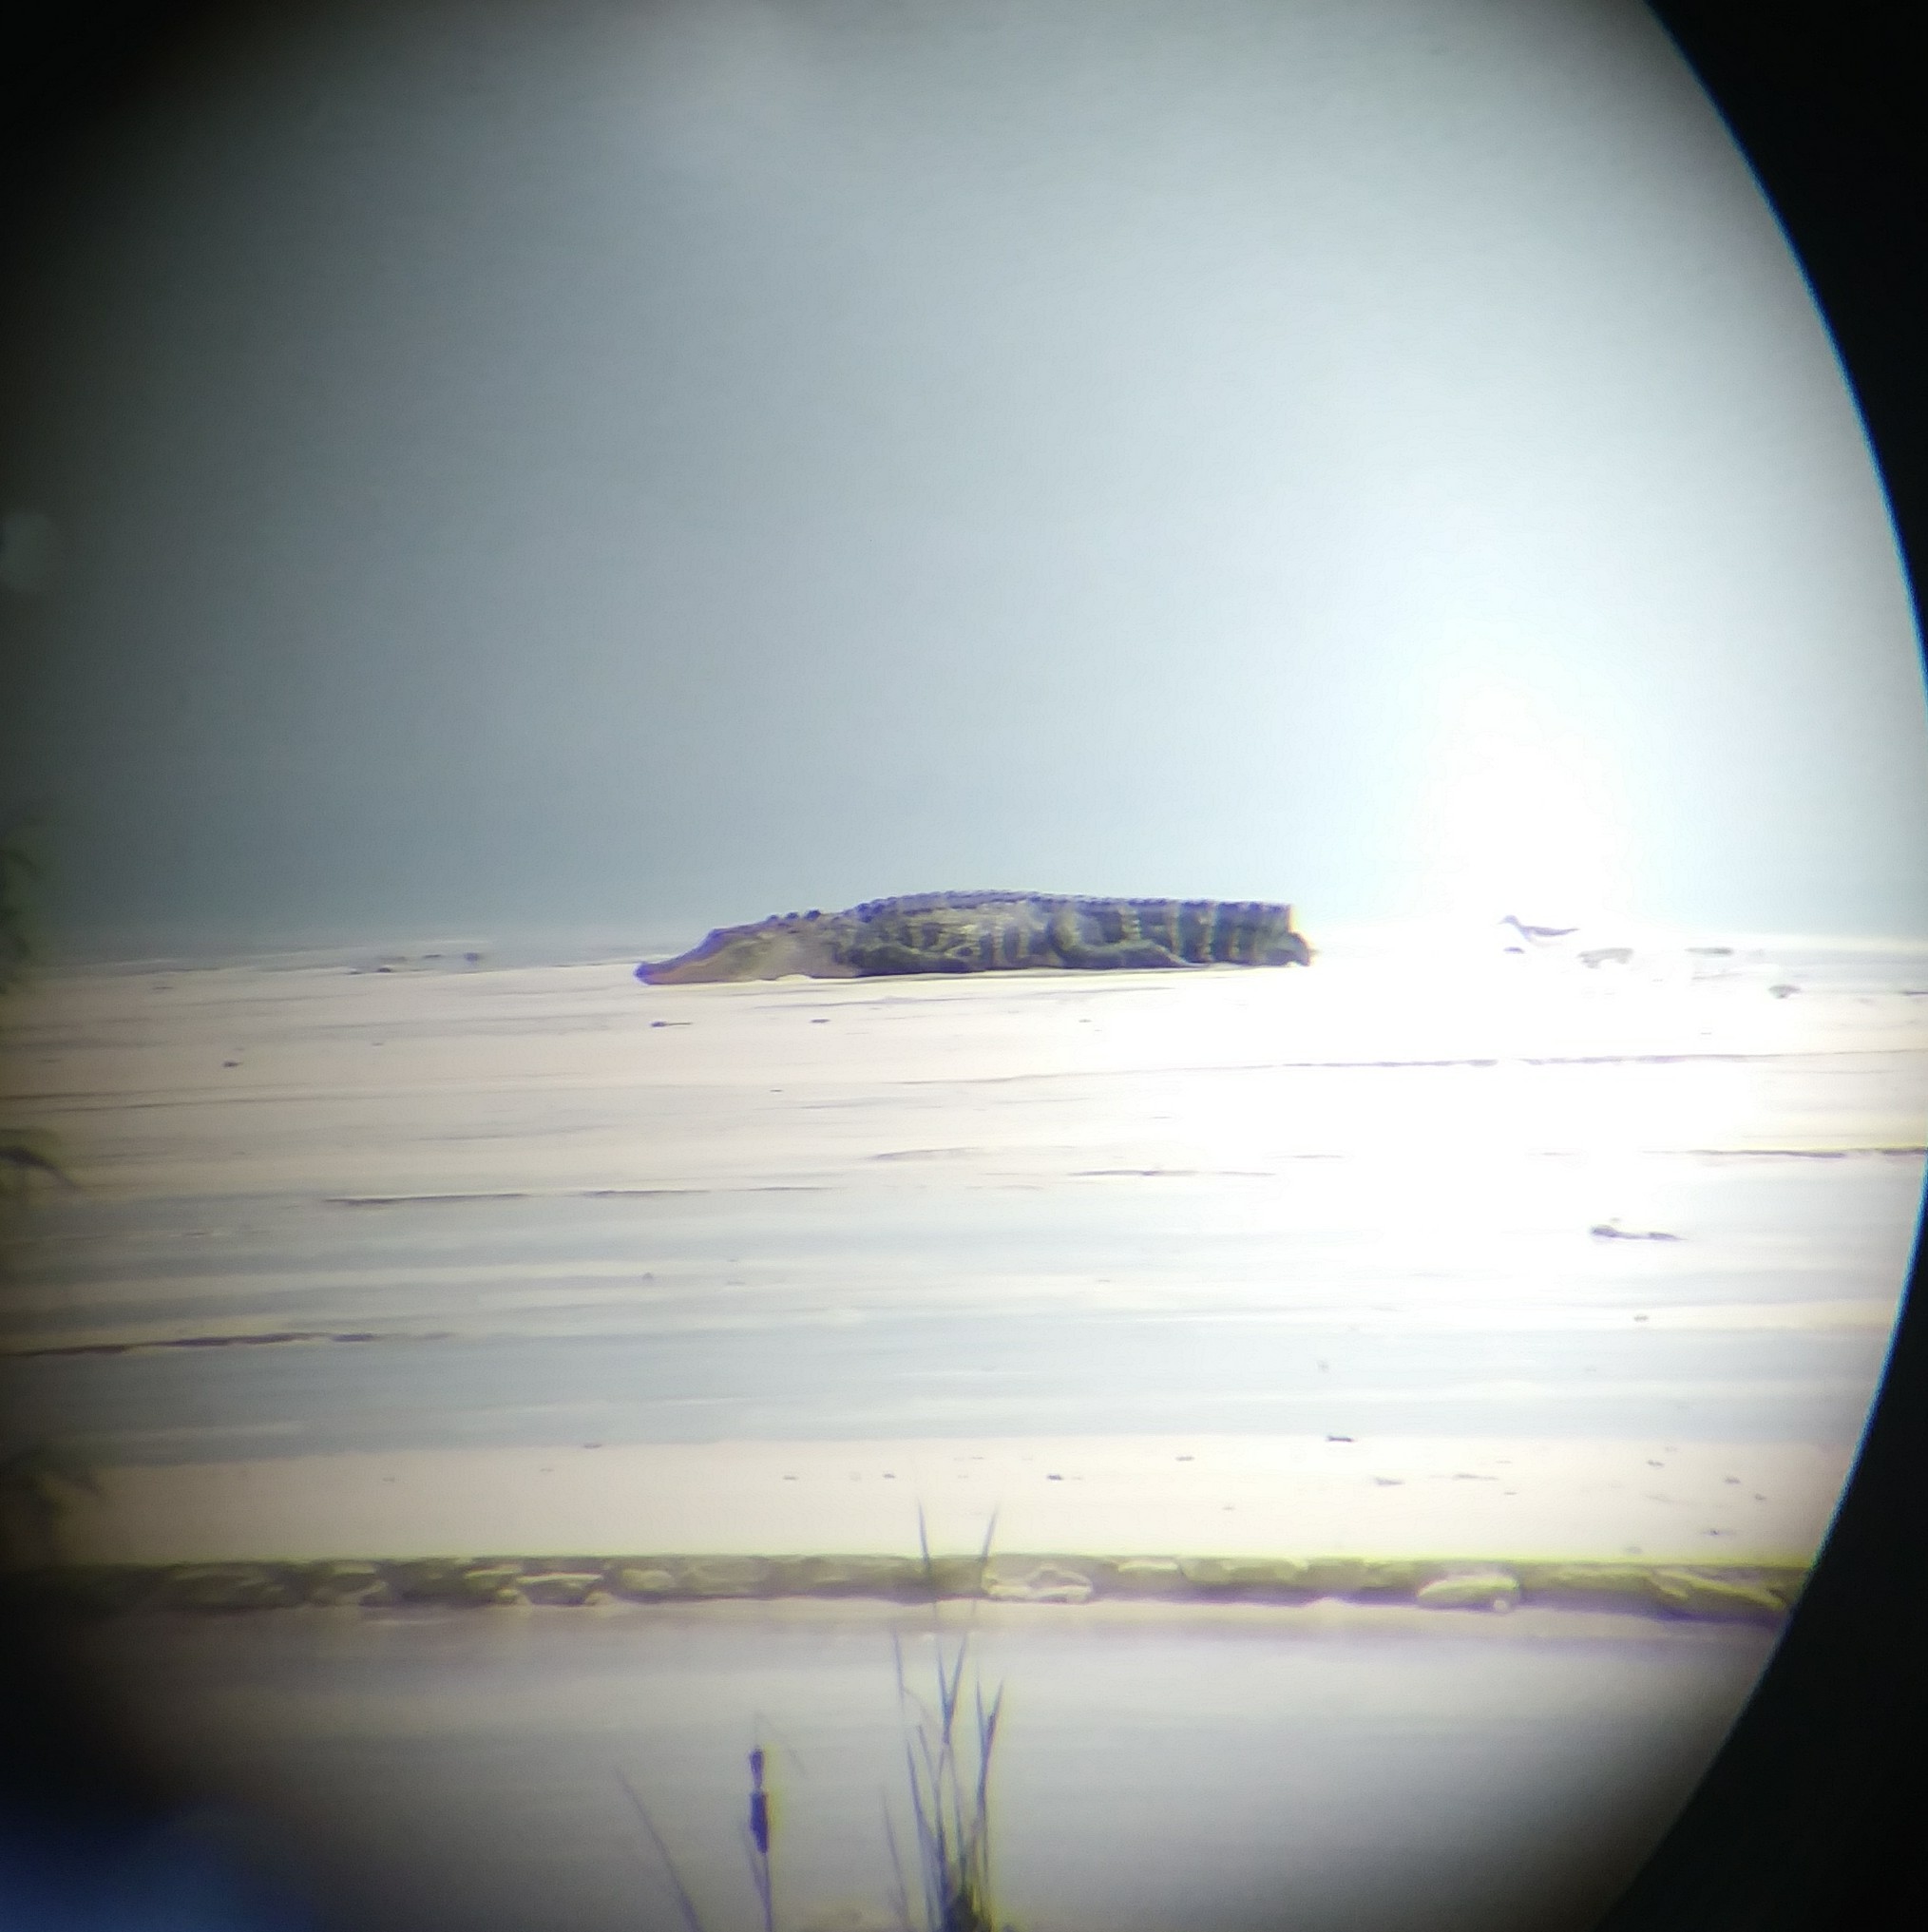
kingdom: Animalia
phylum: Chordata
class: Crocodylia
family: Alligatoridae
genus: Alligator
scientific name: Alligator mississippiensis
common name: American alligator
